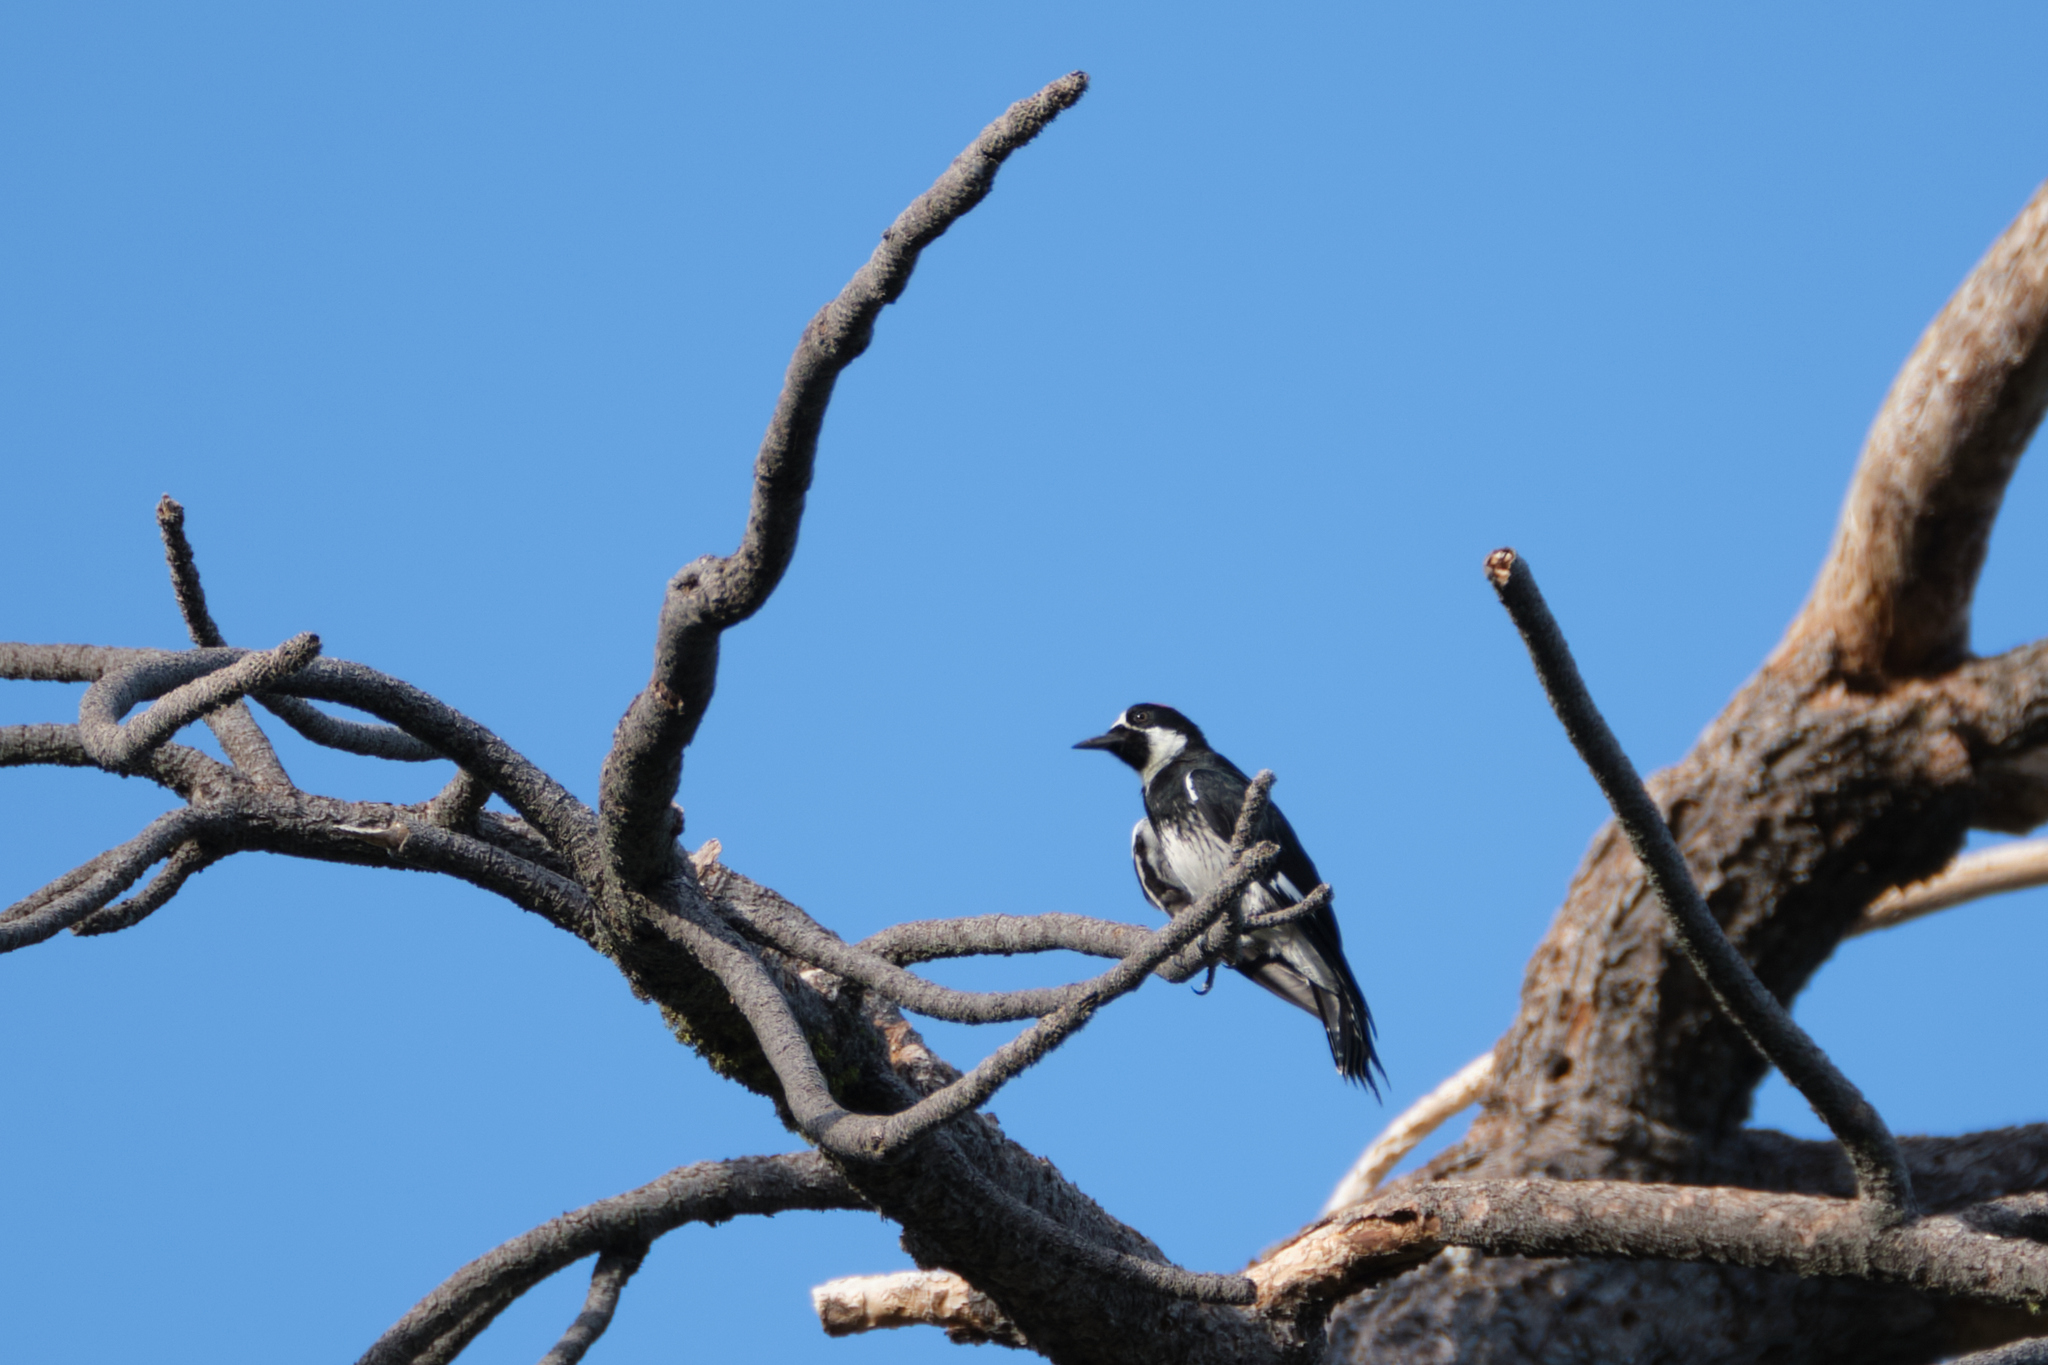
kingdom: Animalia
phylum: Chordata
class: Aves
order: Piciformes
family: Picidae
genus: Melanerpes
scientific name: Melanerpes formicivorus
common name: Acorn woodpecker
